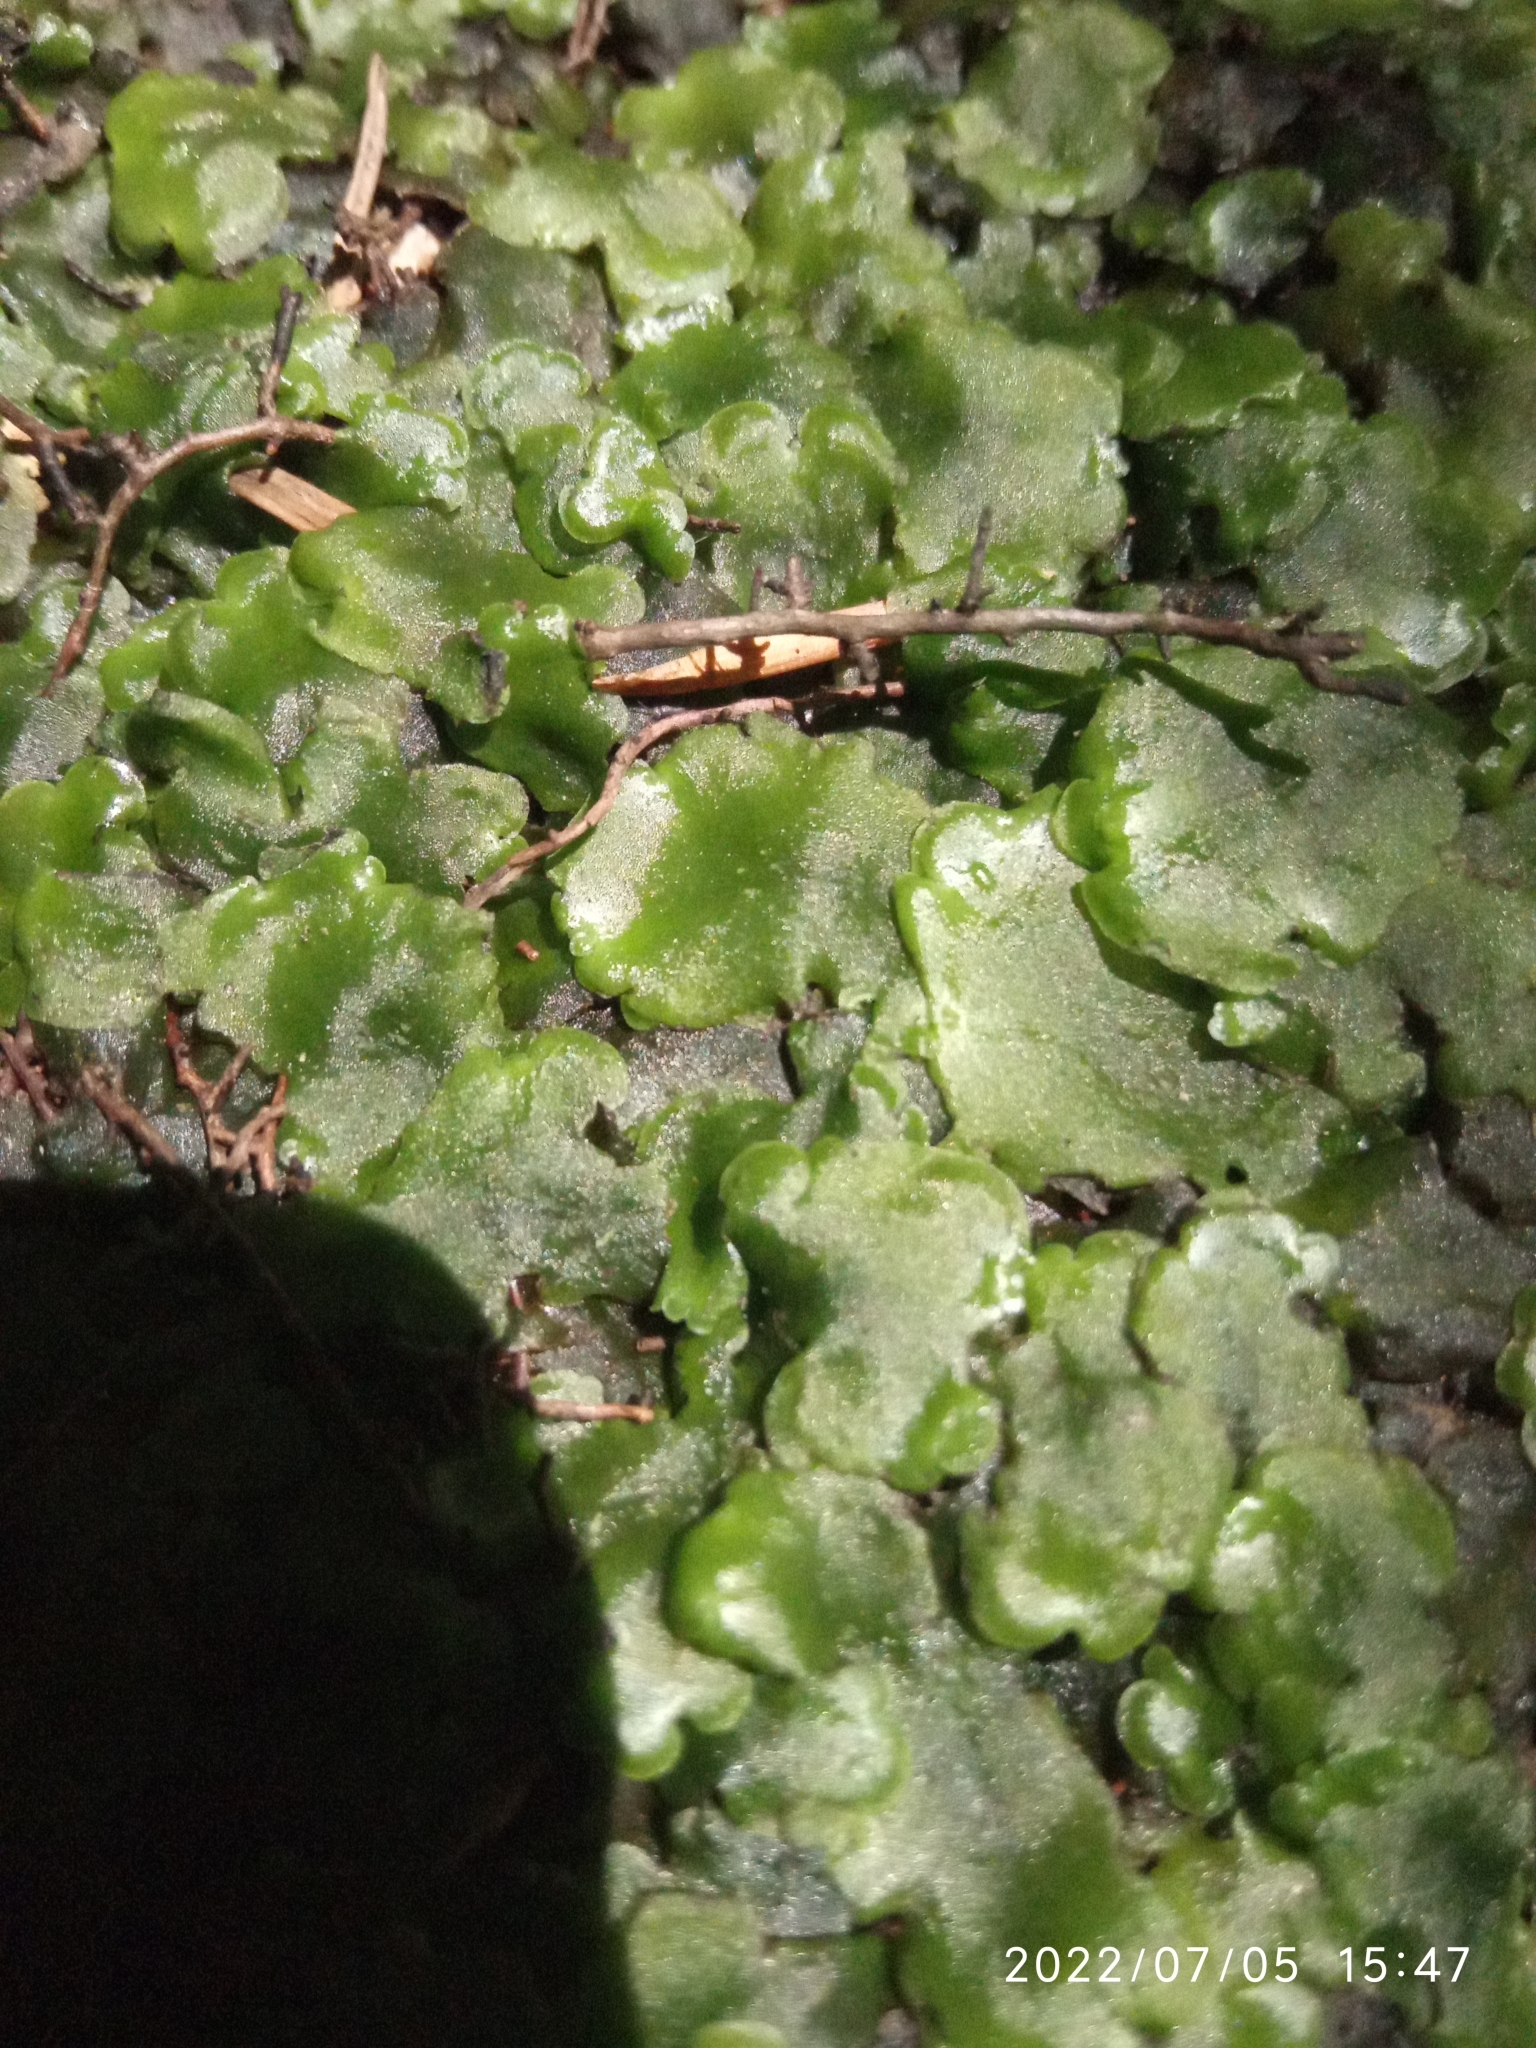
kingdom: Plantae
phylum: Marchantiophyta
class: Jungermanniopsida
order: Pelliales
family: Pelliaceae
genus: Pellia
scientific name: Pellia epiphylla
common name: Common pellia
